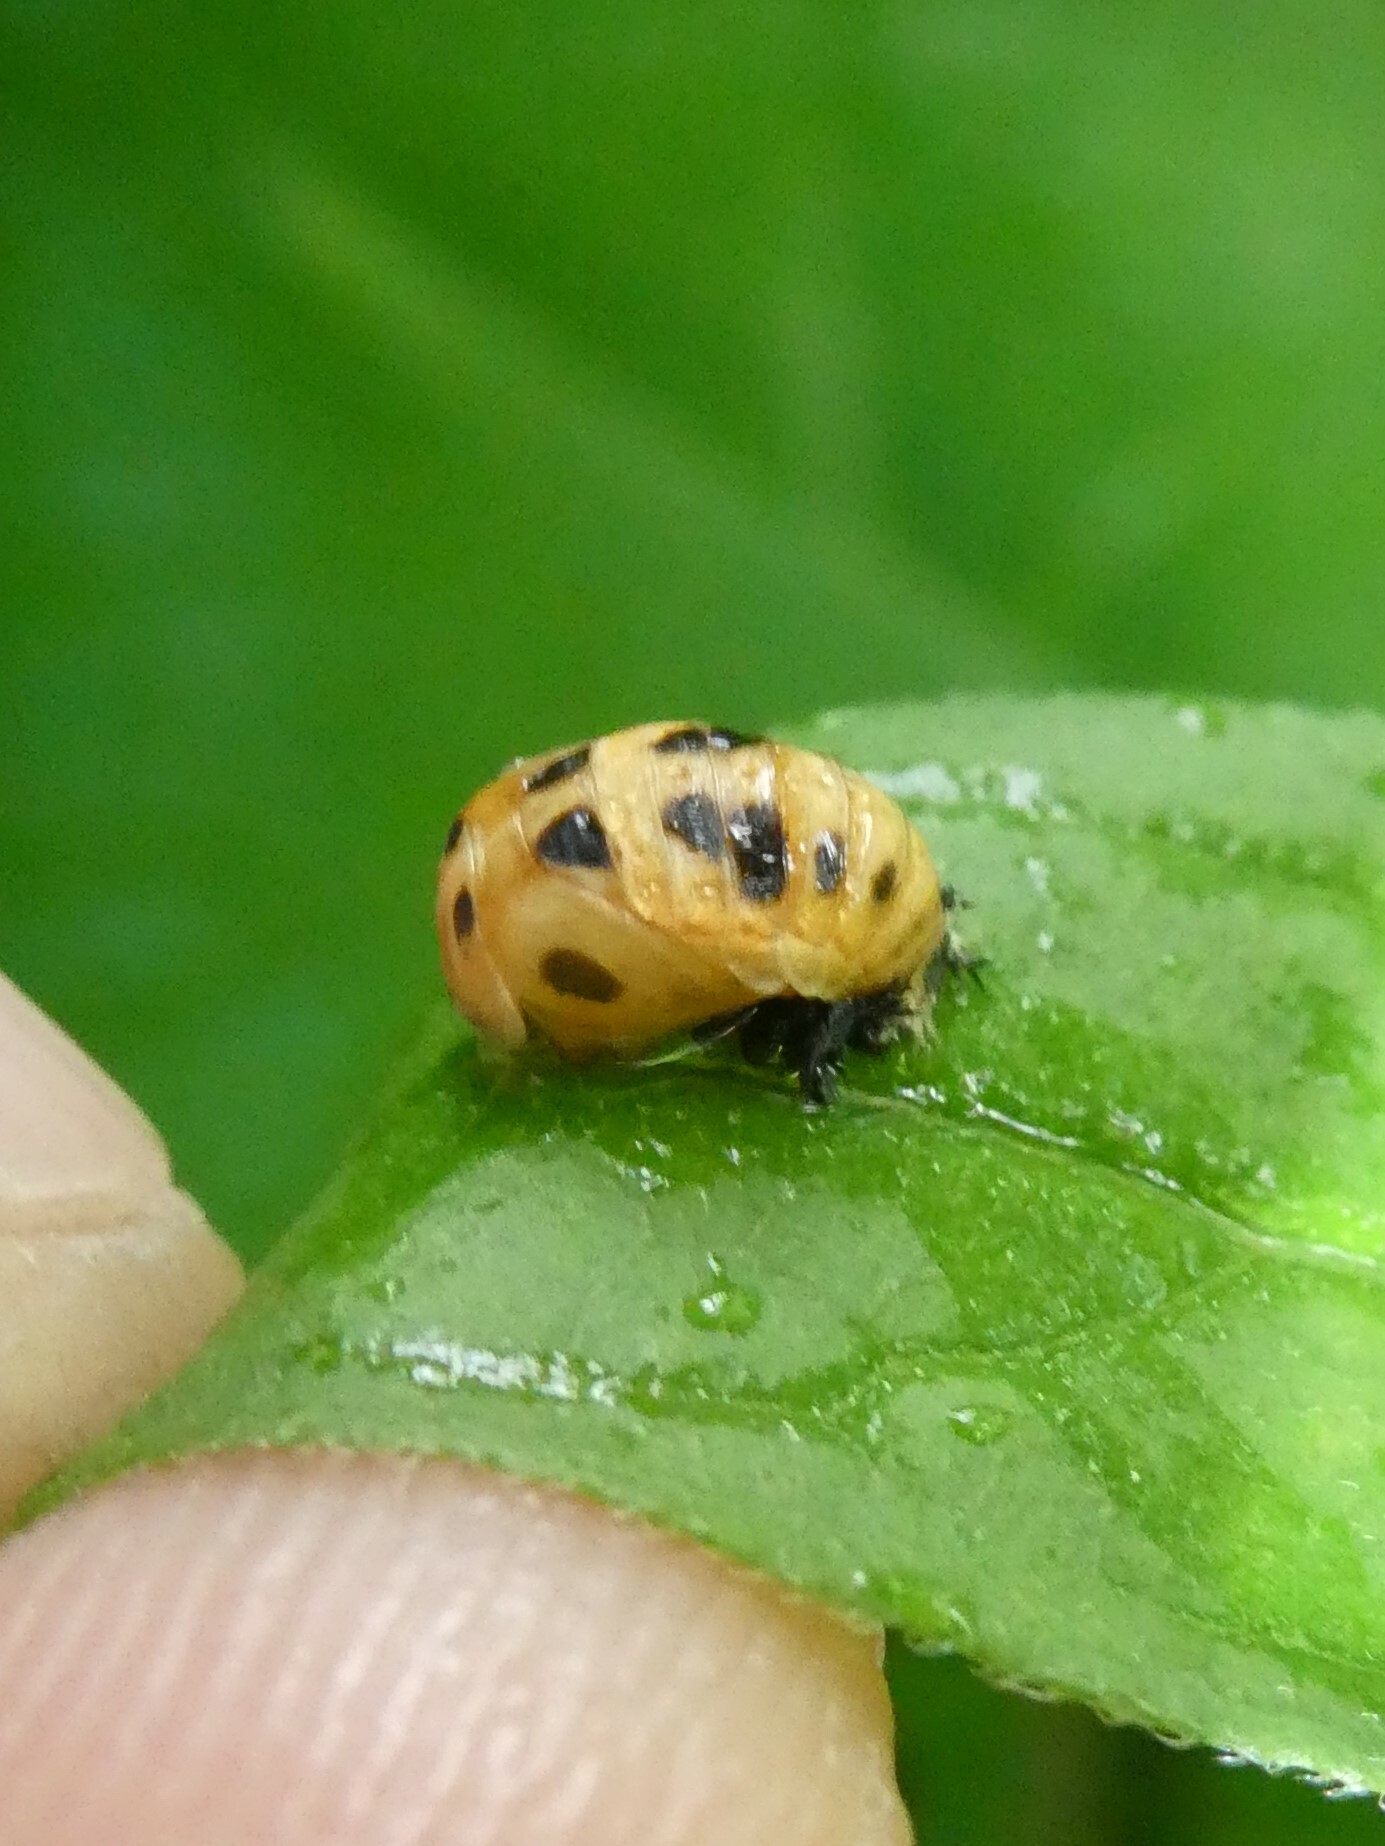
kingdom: Animalia
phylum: Arthropoda
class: Insecta
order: Coleoptera
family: Coccinellidae
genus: Harmonia
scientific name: Harmonia axyridis
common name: Harlequin ladybird
